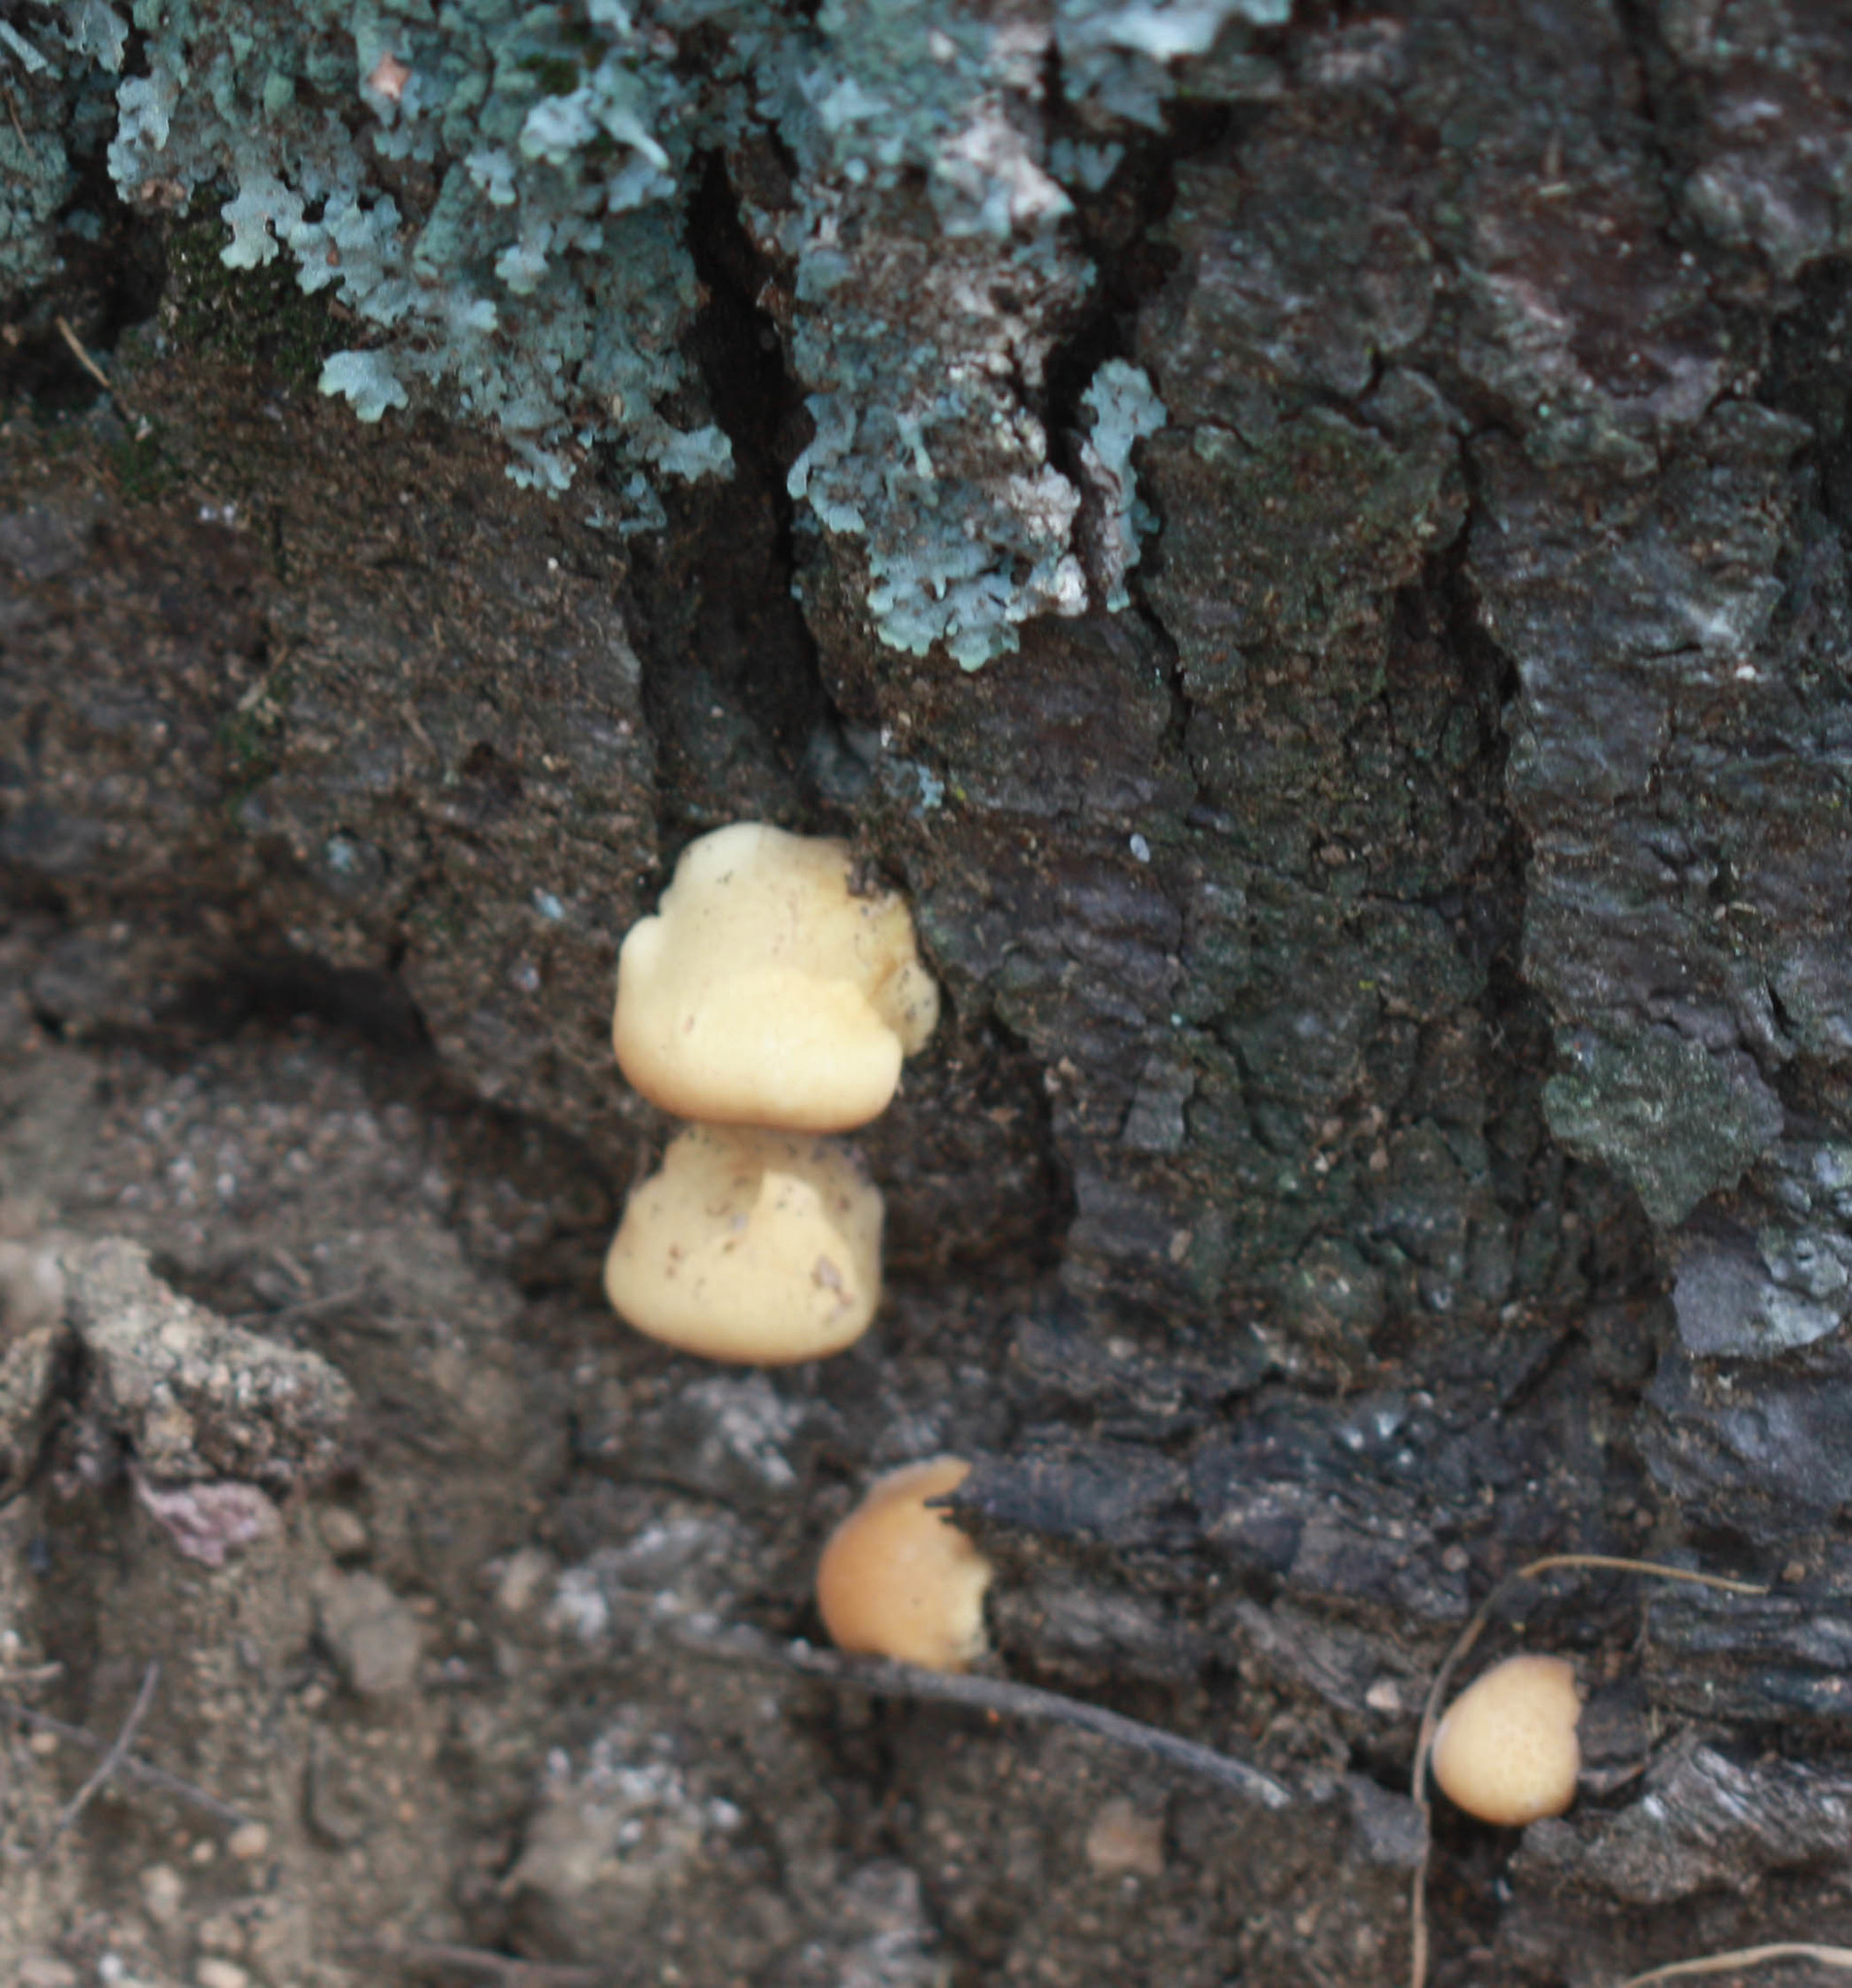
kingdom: Fungi
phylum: Basidiomycota
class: Agaricomycetes
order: Polyporales
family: Polyporaceae
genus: Cryptoporus
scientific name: Cryptoporus volvatus
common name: Veiled polypore
